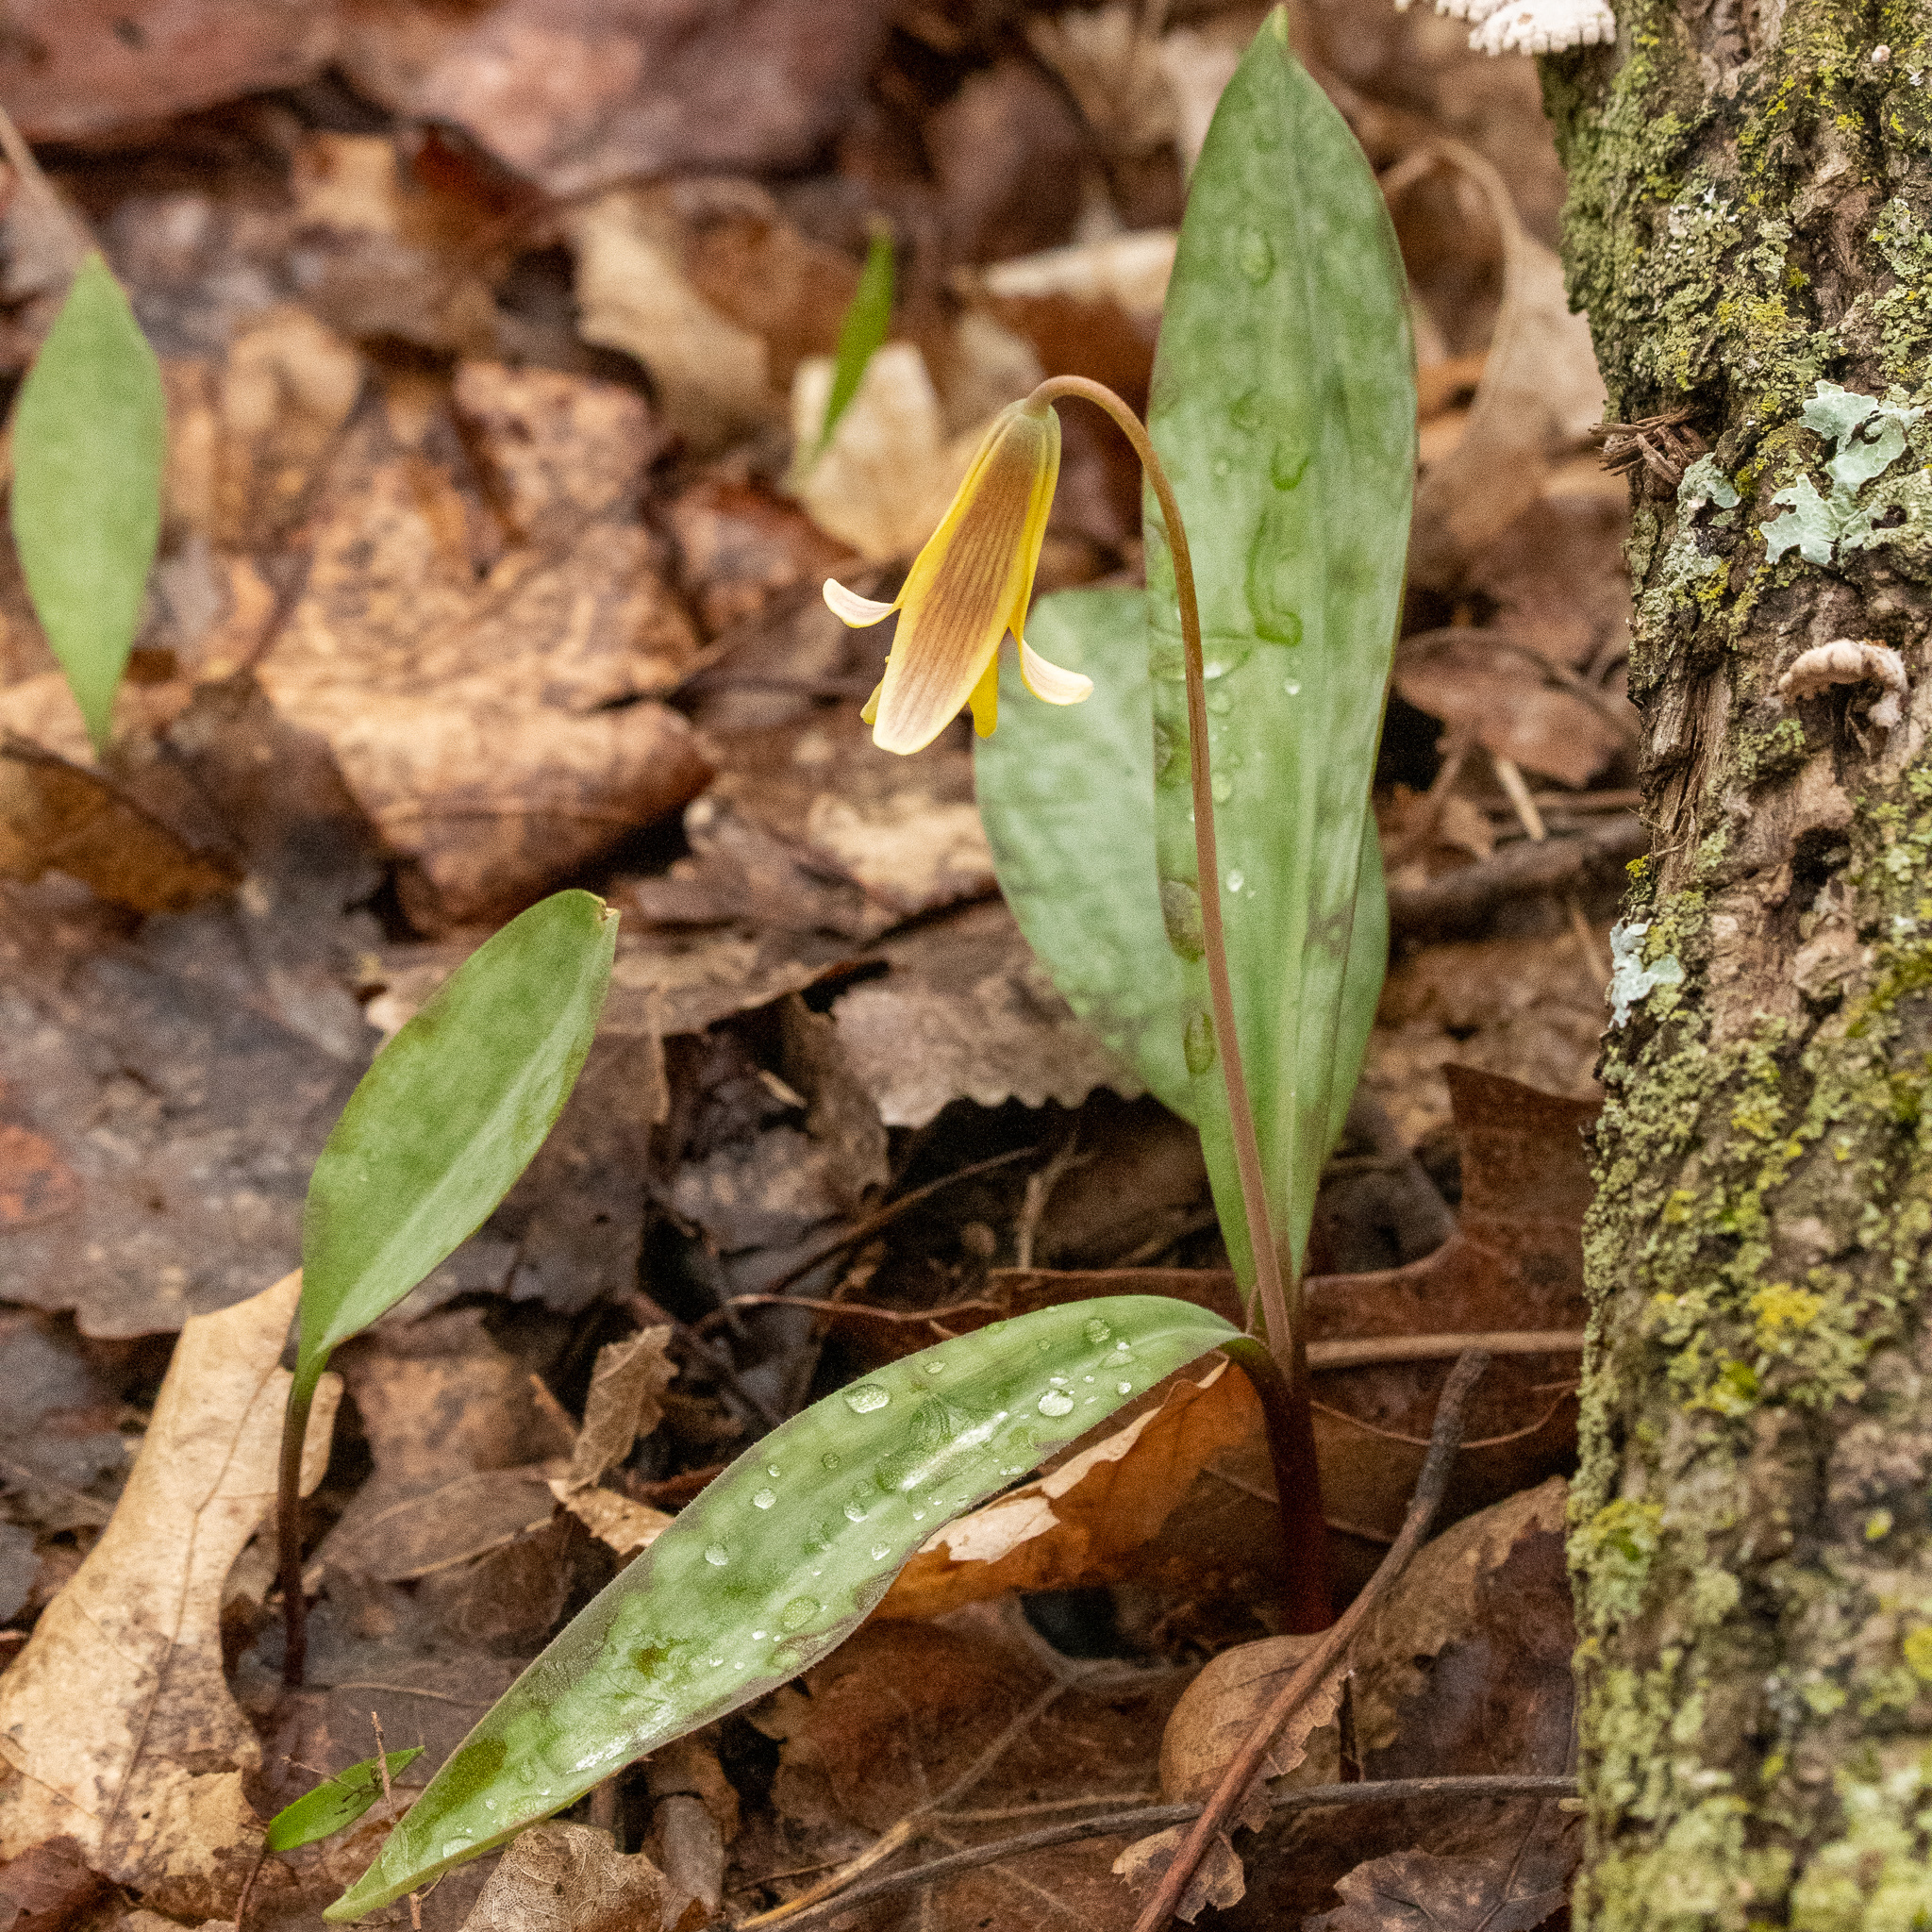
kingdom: Plantae
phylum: Tracheophyta
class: Liliopsida
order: Liliales
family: Liliaceae
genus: Erythronium
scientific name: Erythronium americanum
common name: Yellow adder's-tongue
